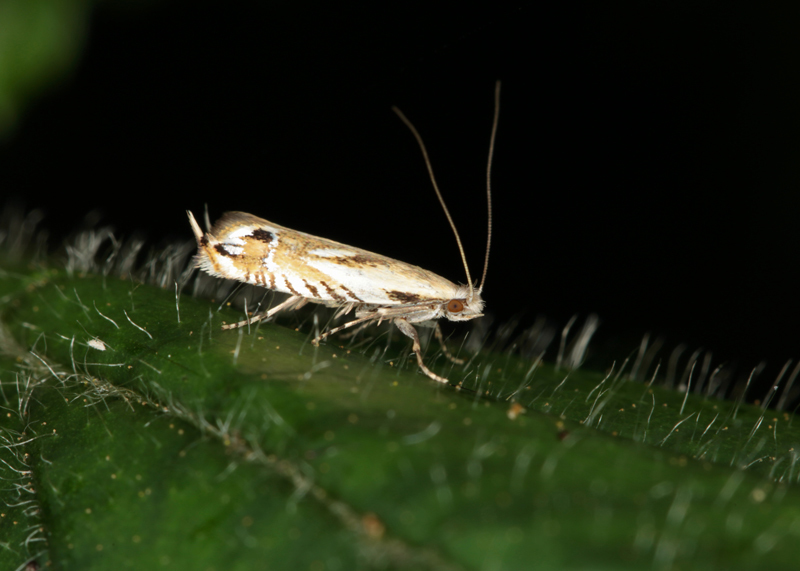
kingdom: Animalia
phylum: Arthropoda
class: Insecta
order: Lepidoptera
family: Tineidae
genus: Erechthias
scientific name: Erechthias decoranda
